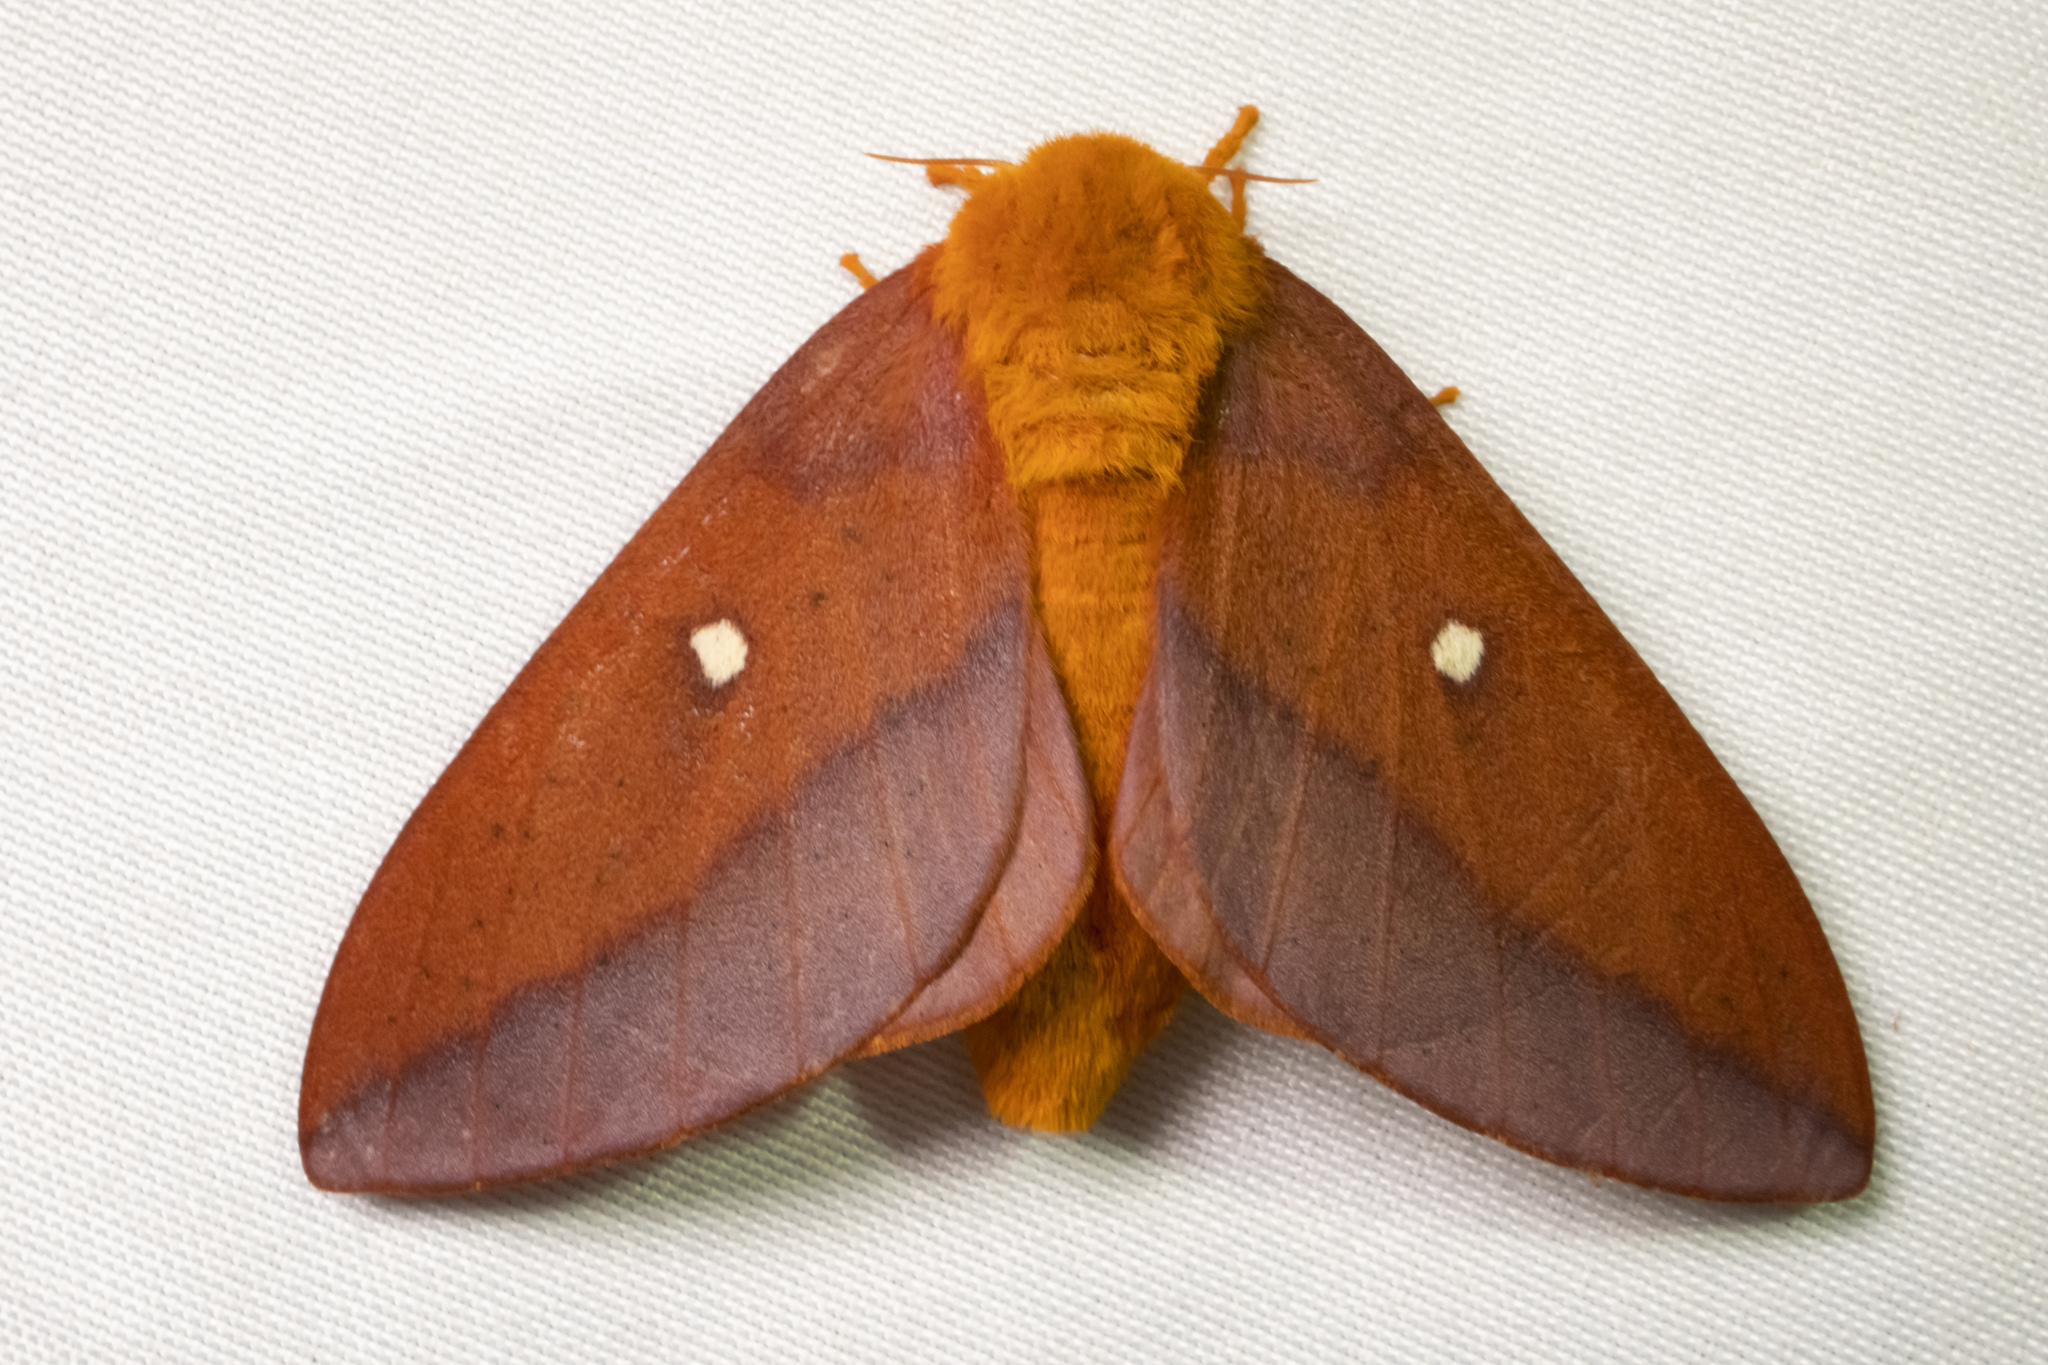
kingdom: Animalia
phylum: Arthropoda
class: Insecta
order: Lepidoptera
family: Saturniidae
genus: Anisota
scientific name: Anisota virginiensis
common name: Pink striped oakworm moth
